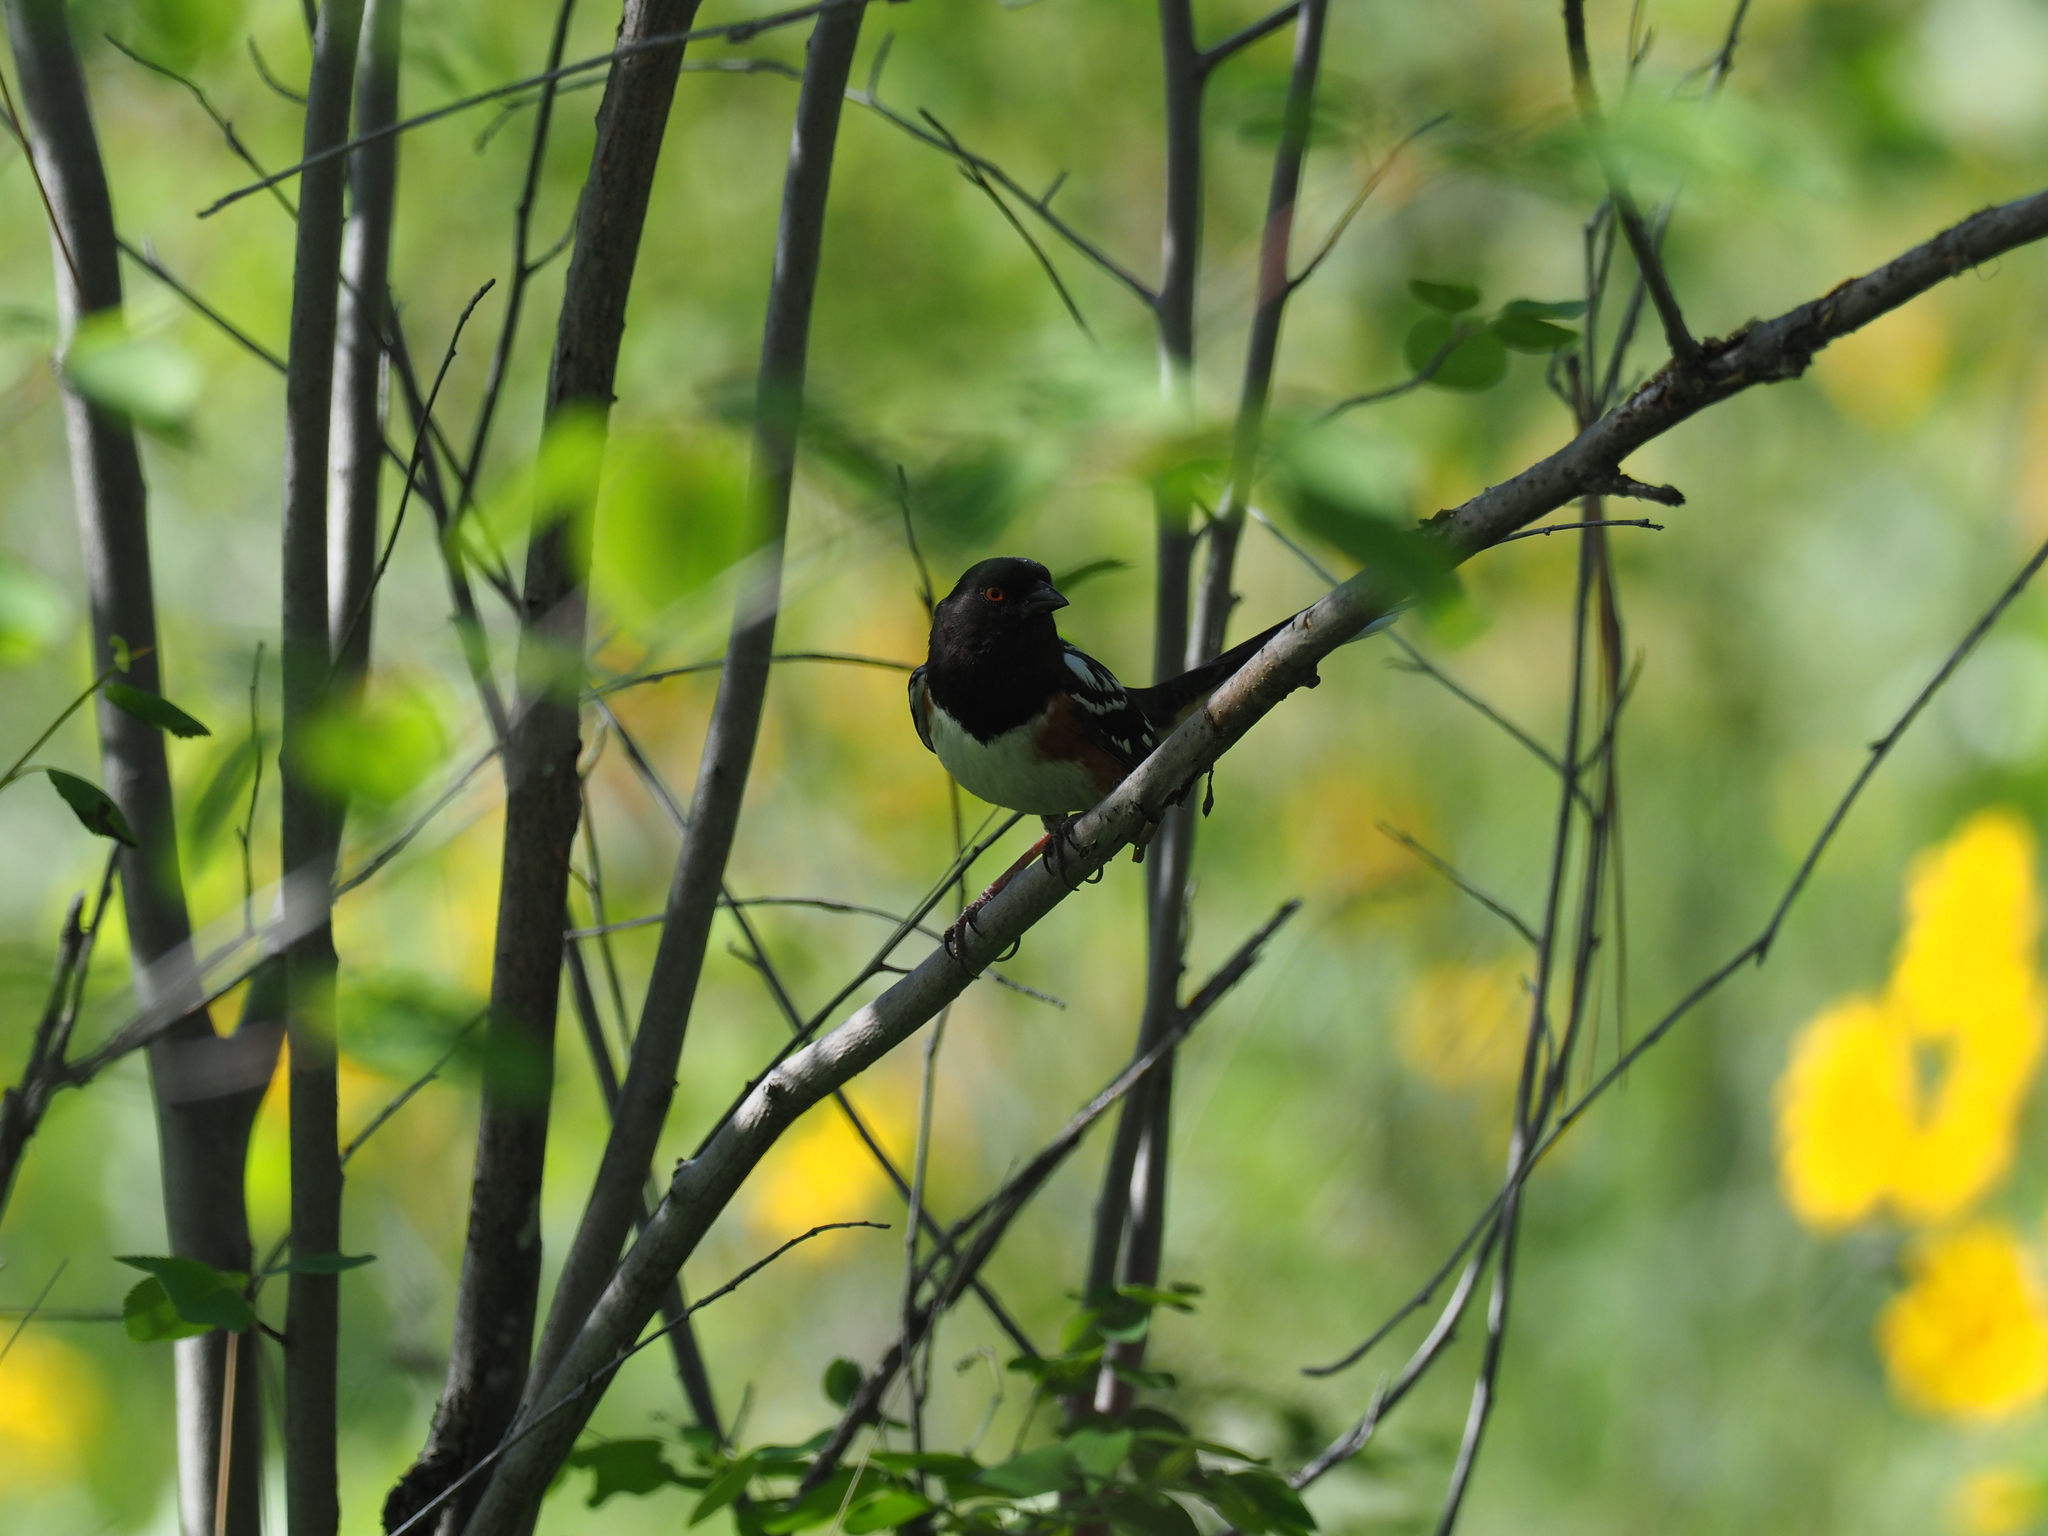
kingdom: Animalia
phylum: Chordata
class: Aves
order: Passeriformes
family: Passerellidae
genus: Pipilo
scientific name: Pipilo maculatus
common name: Spotted towhee
